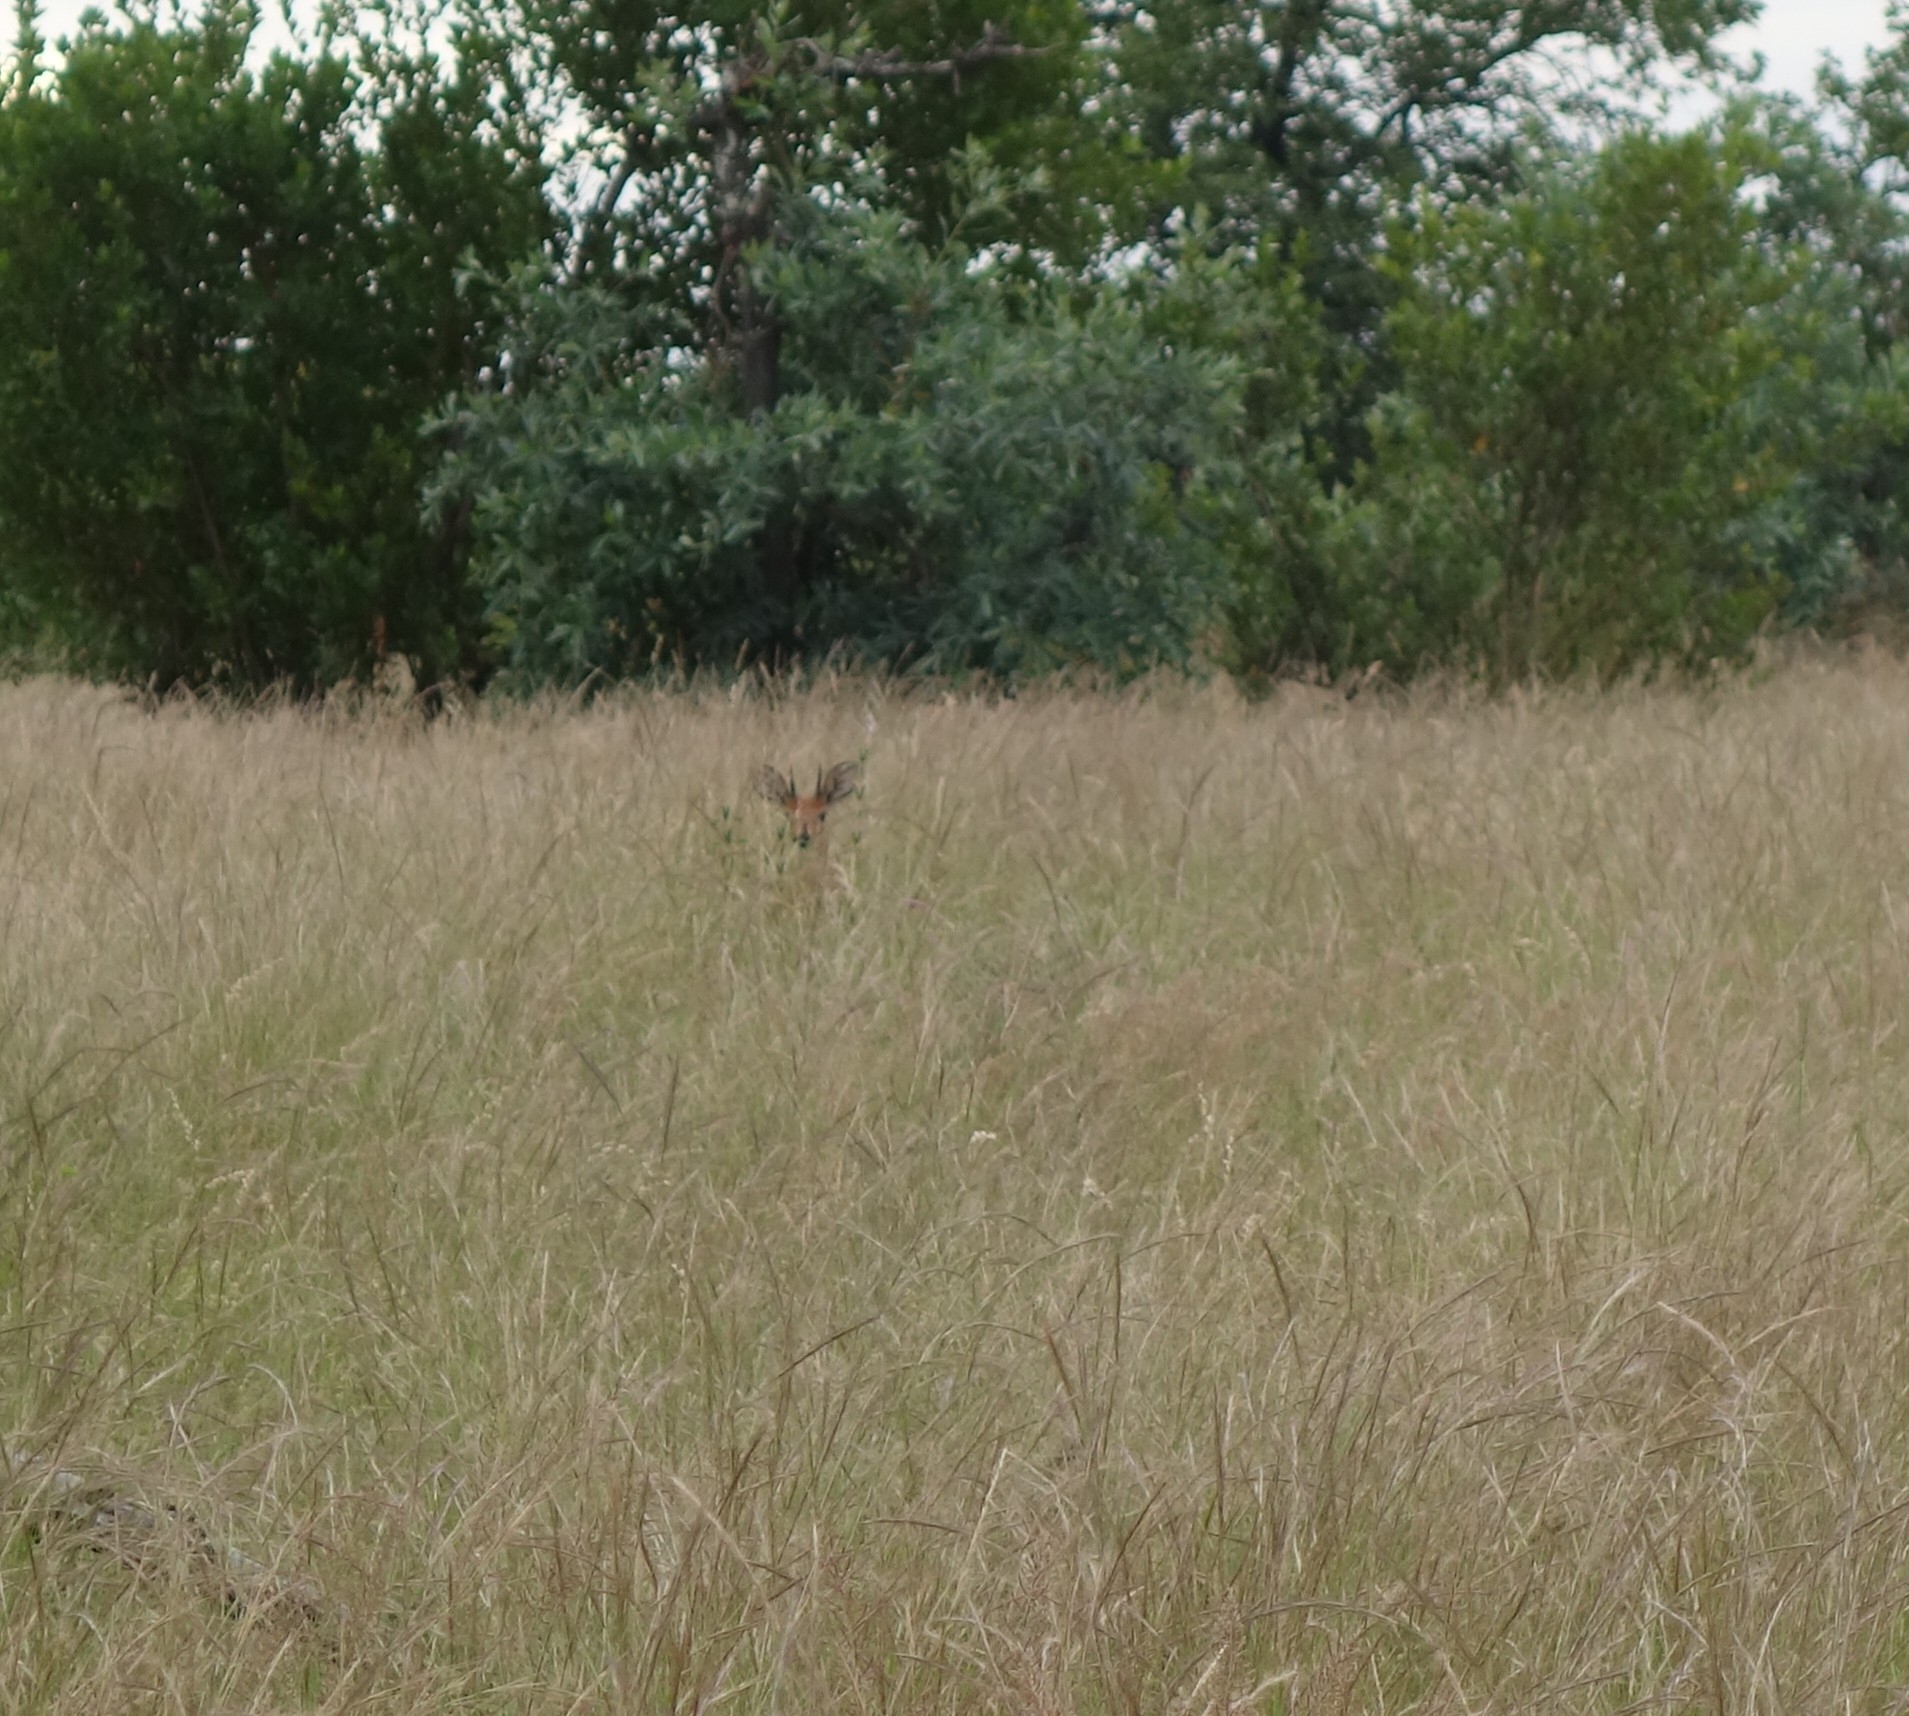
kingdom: Animalia
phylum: Chordata
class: Mammalia
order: Artiodactyla
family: Bovidae
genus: Raphicerus
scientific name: Raphicerus campestris
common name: Steenbok
